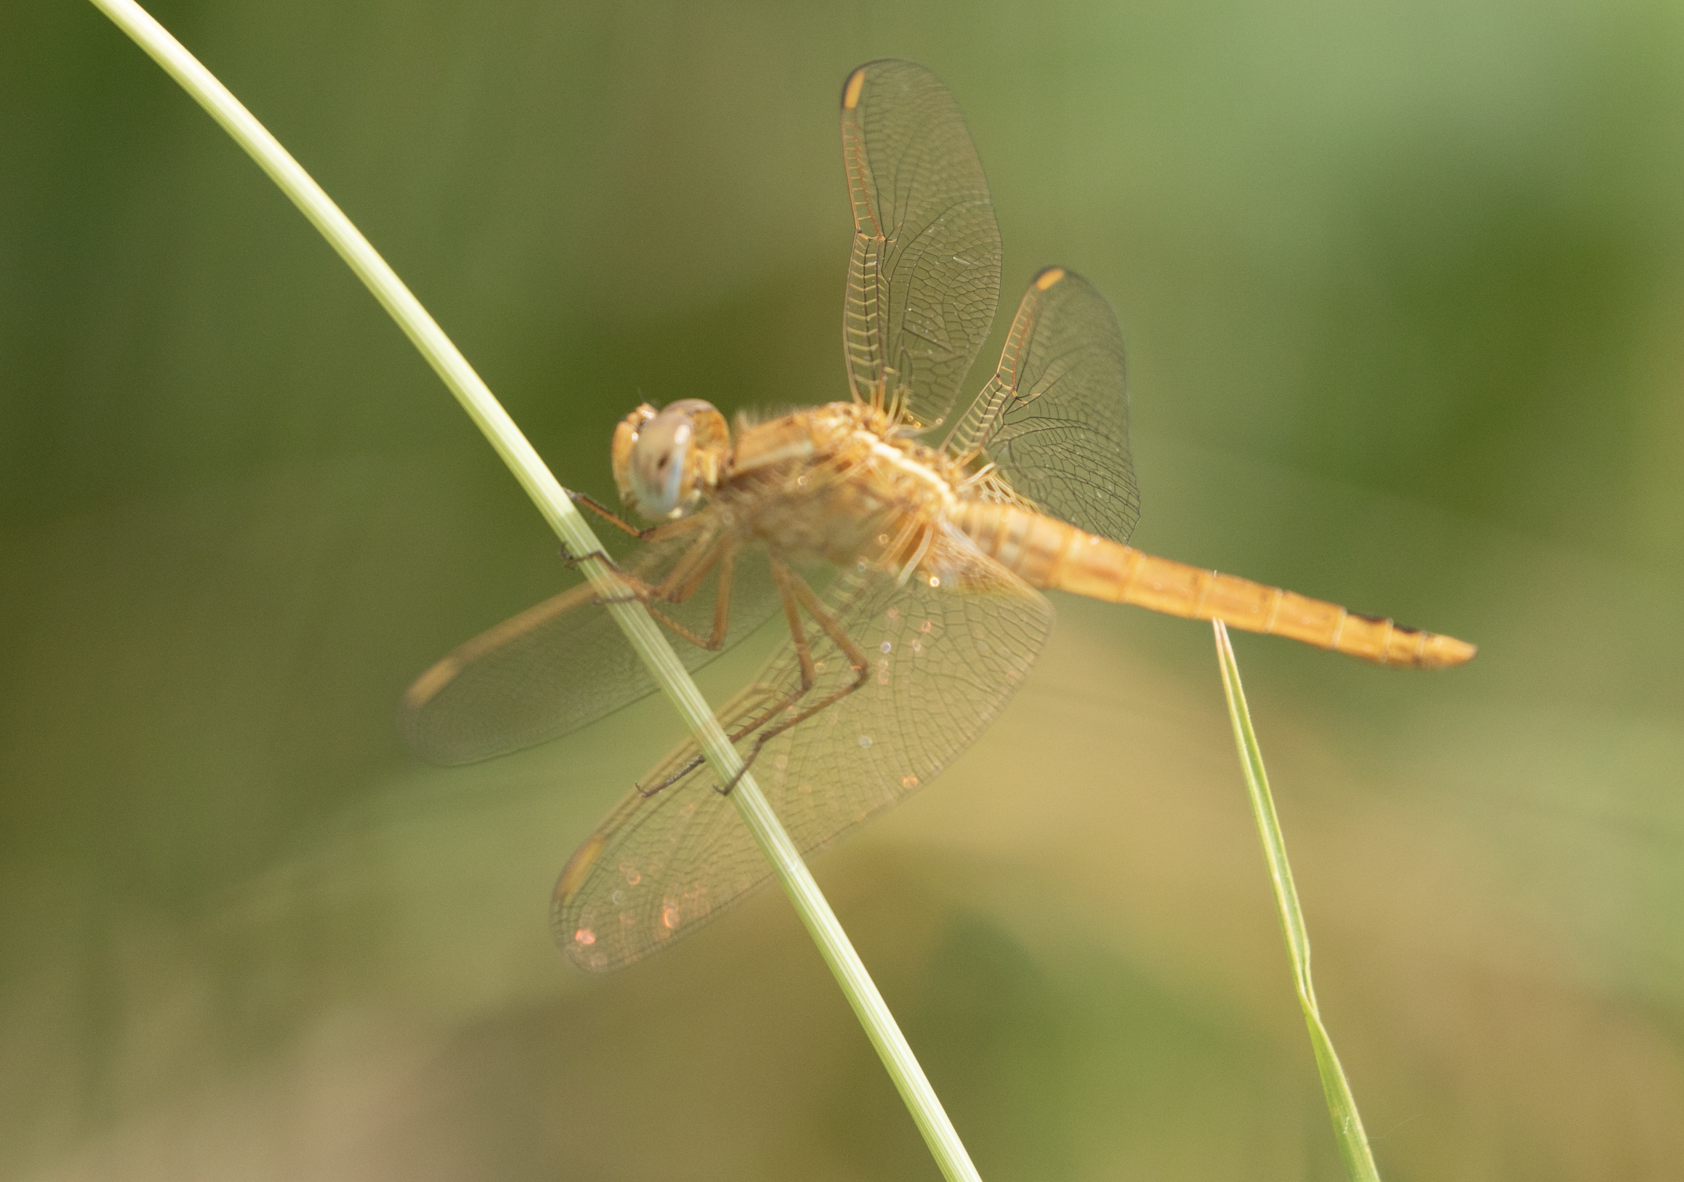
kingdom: Animalia
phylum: Arthropoda
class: Insecta
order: Odonata
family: Libellulidae
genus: Crocothemis
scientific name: Crocothemis erythraea
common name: Scarlet dragonfly
